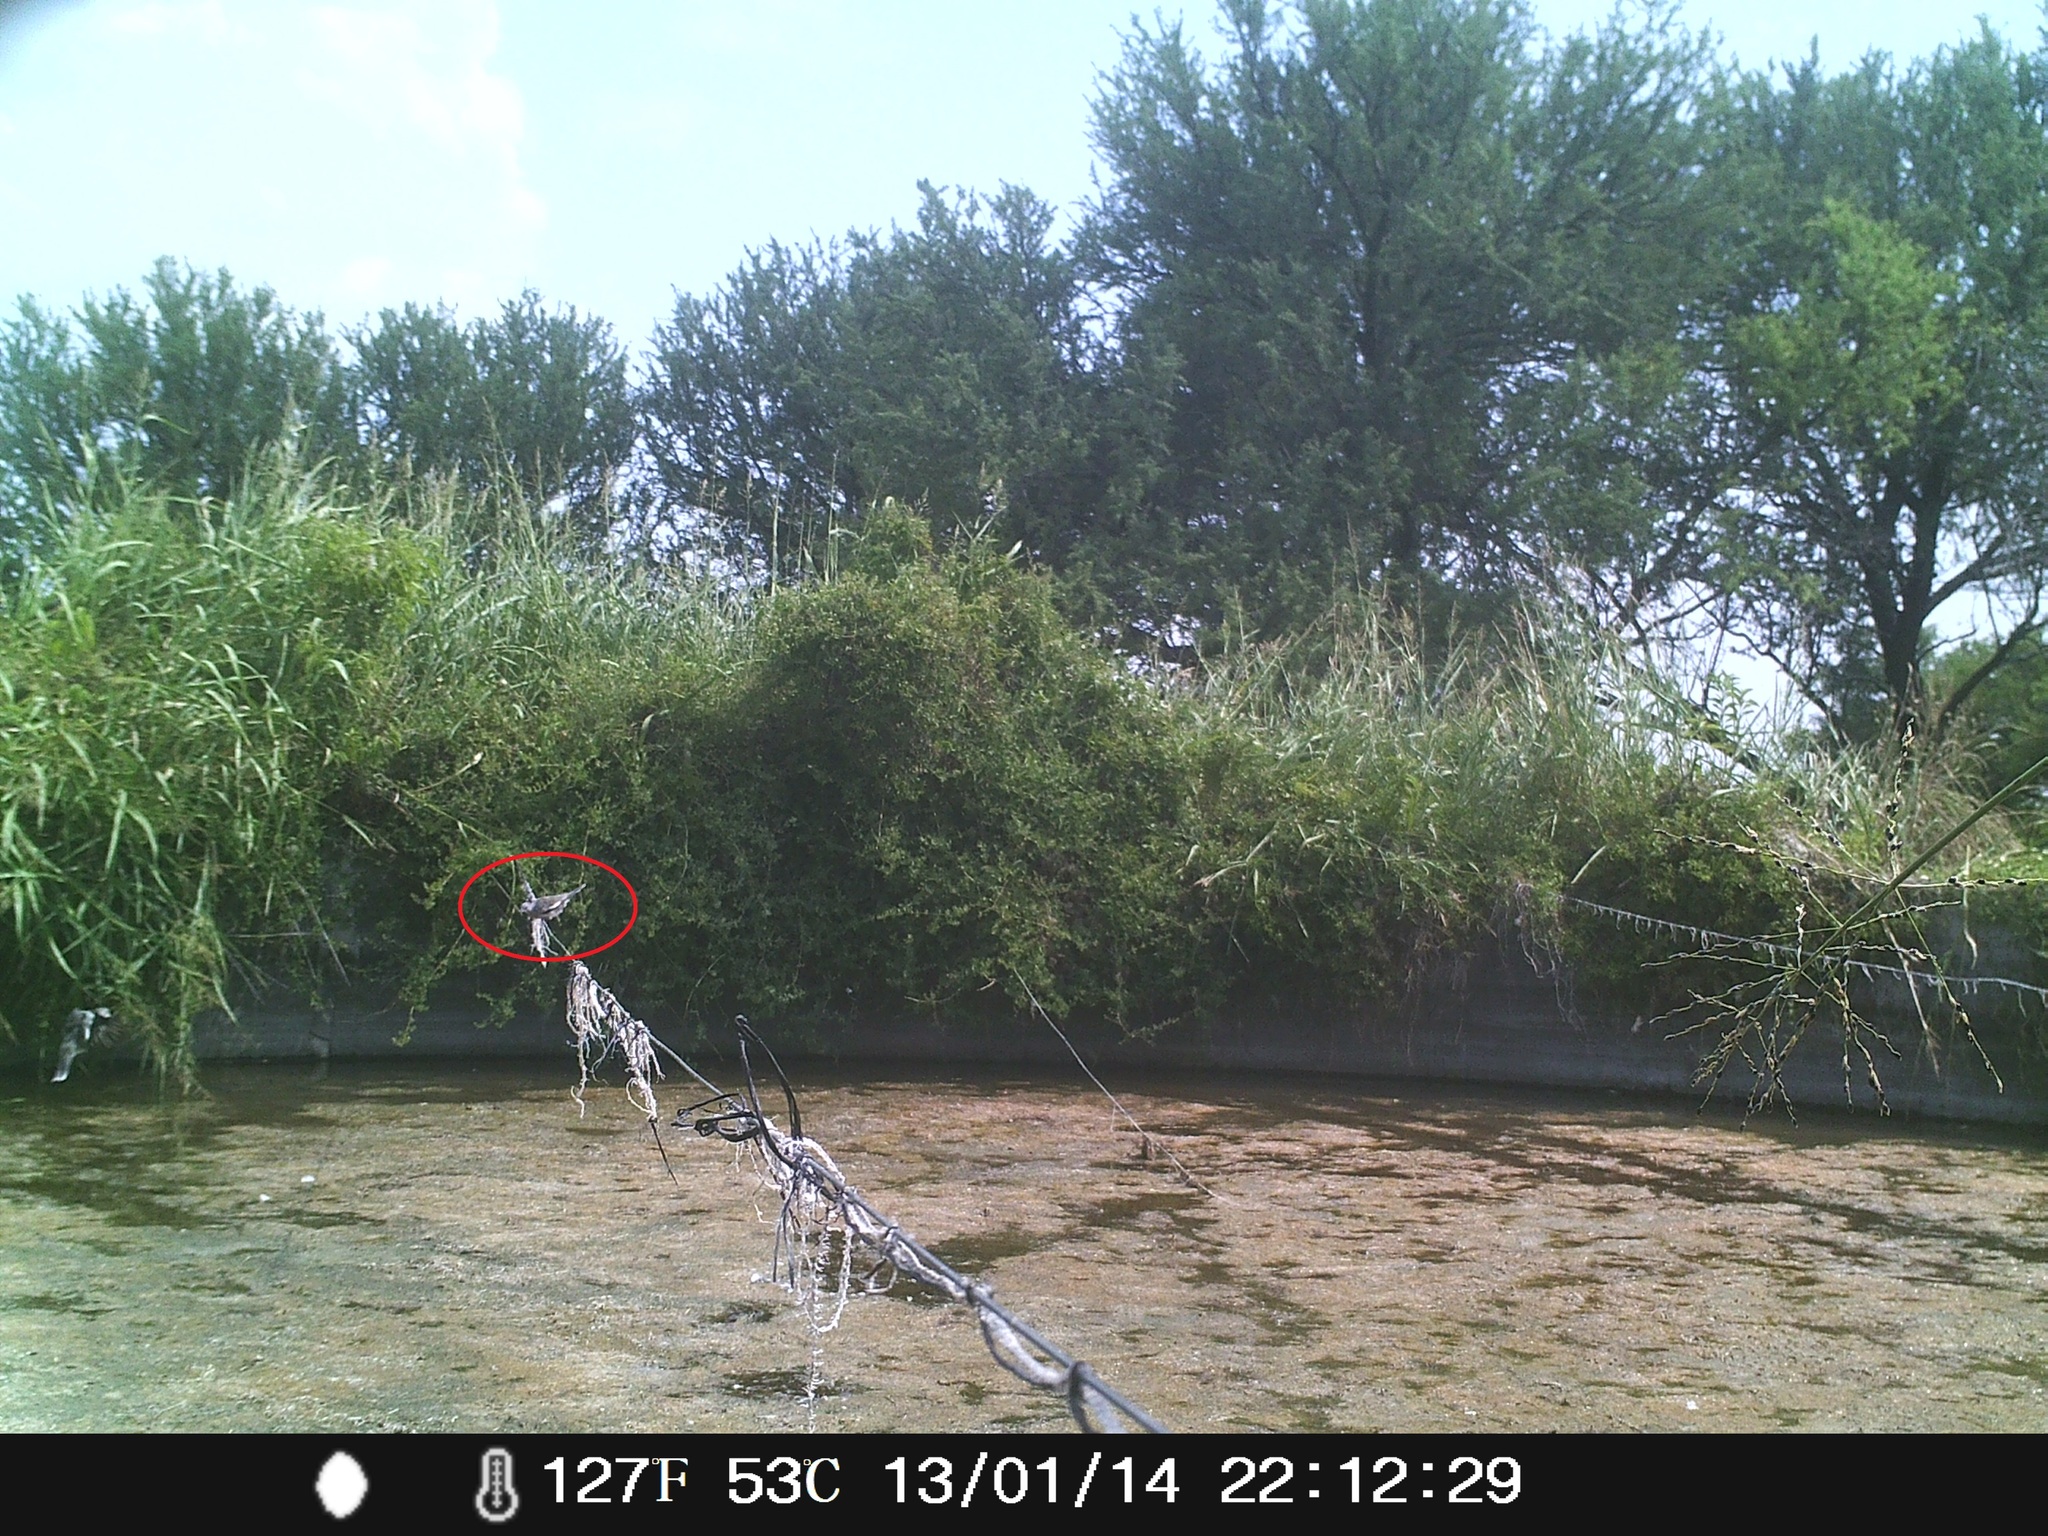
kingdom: Animalia
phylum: Chordata
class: Aves
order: Columbiformes
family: Columbidae
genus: Columbina
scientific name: Columbina picui
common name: Picui ground dove
